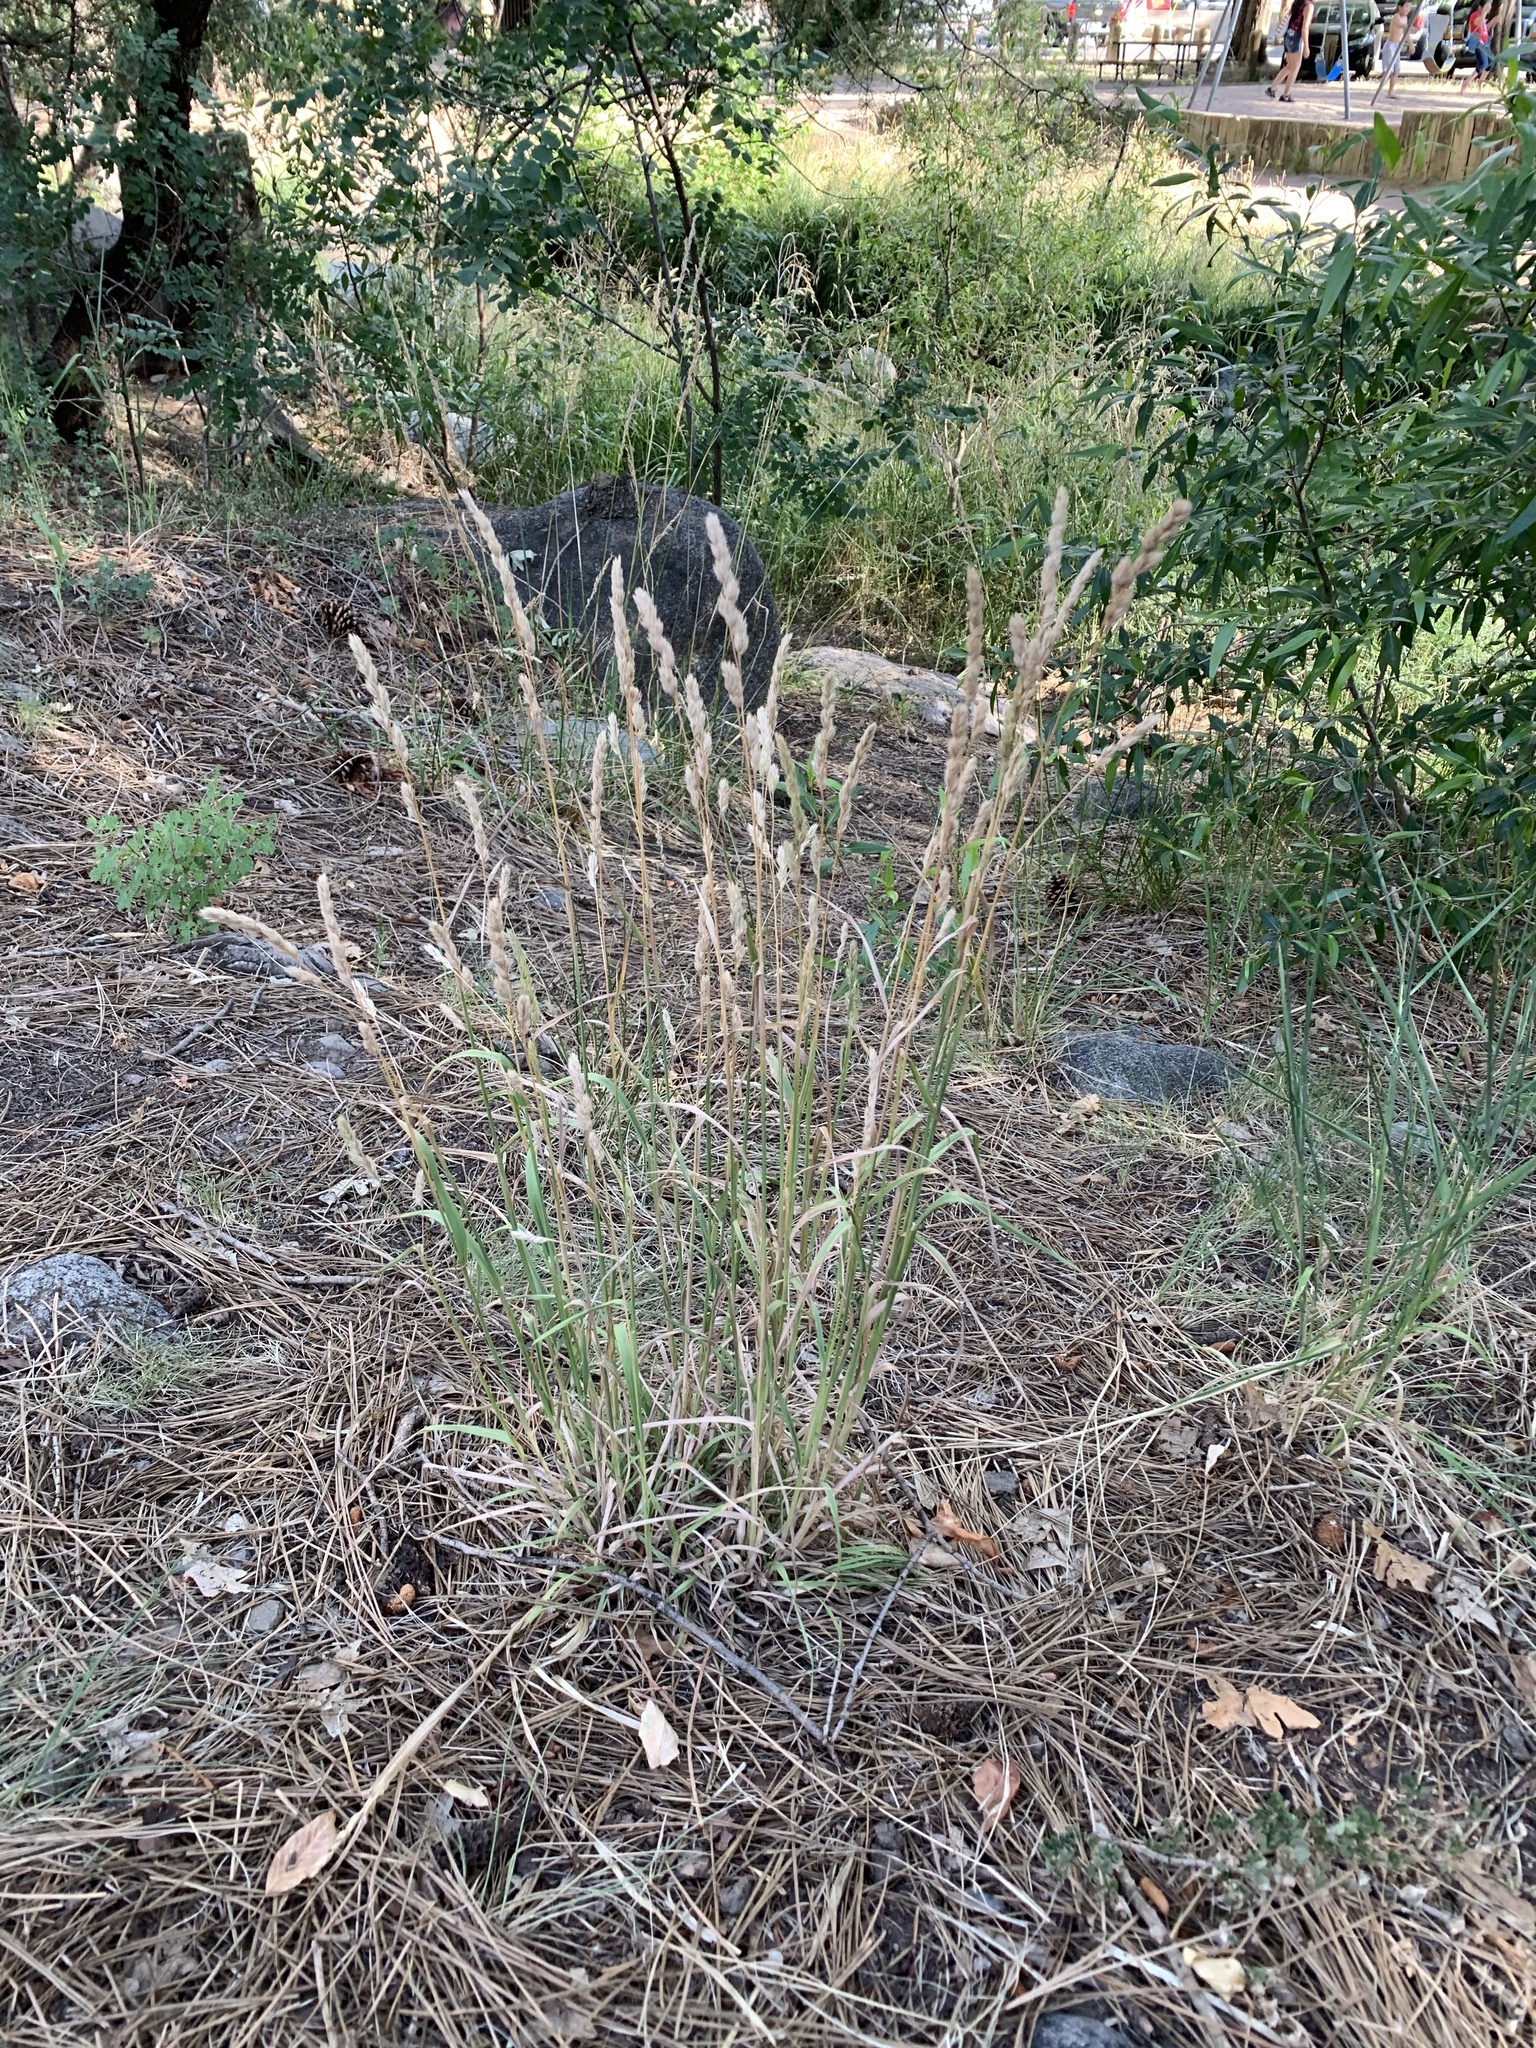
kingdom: Plantae
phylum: Tracheophyta
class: Liliopsida
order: Poales
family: Poaceae
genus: Dactylis
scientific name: Dactylis glomerata
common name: Orchardgrass
